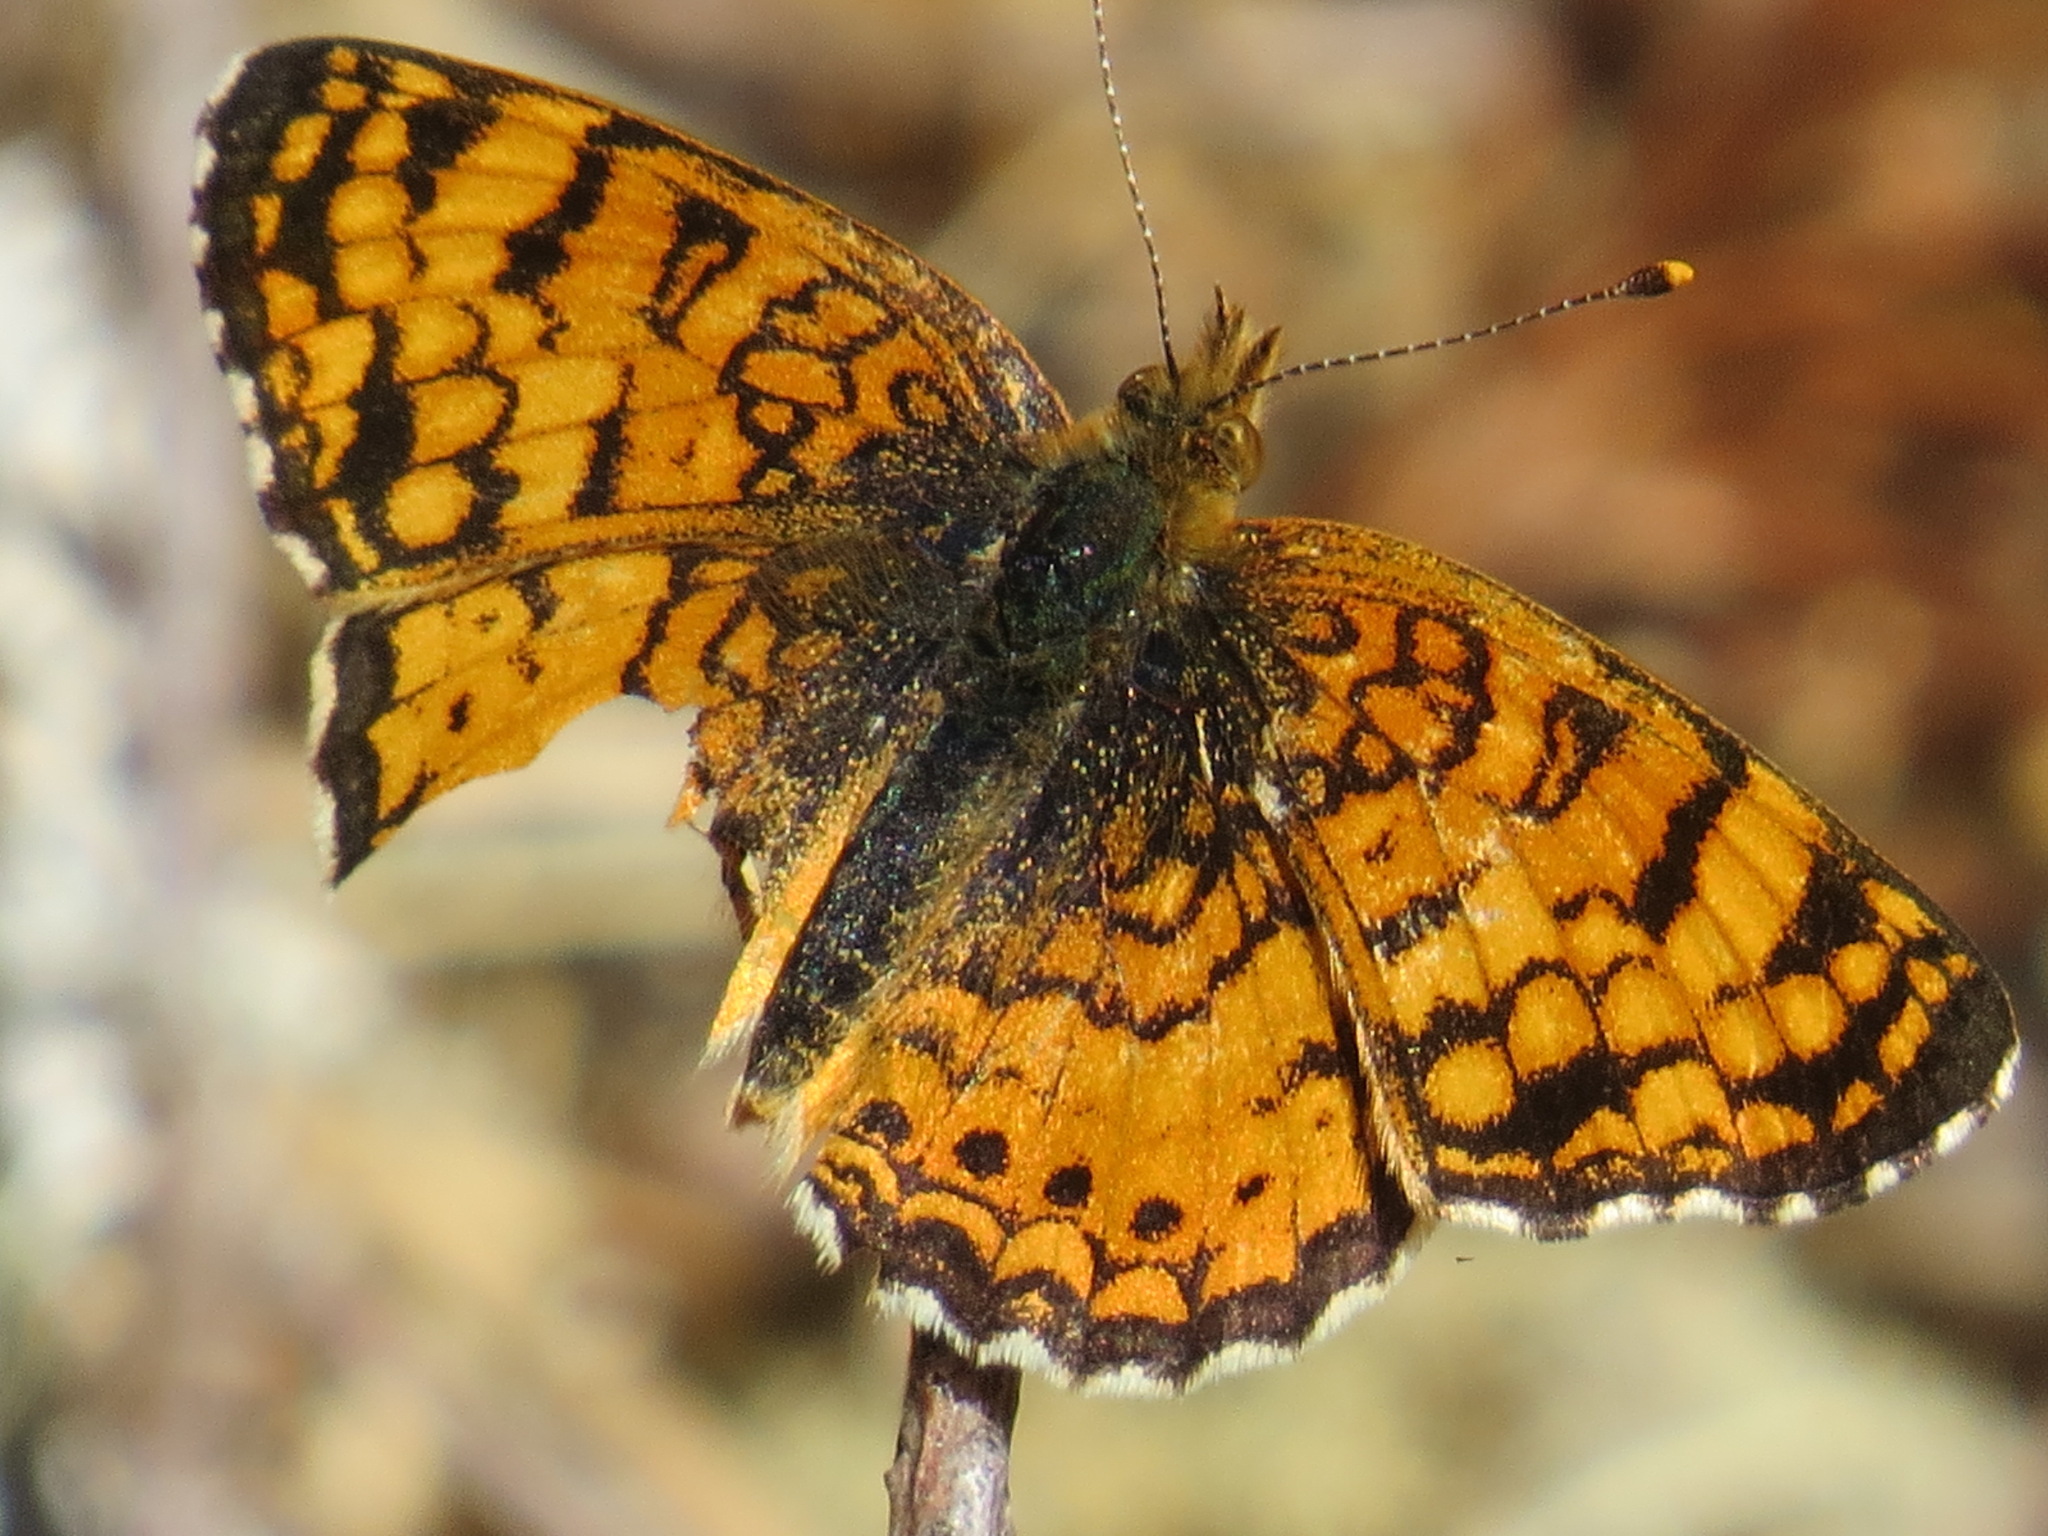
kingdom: Animalia
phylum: Arthropoda
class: Insecta
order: Lepidoptera
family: Nymphalidae
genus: Eresia
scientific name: Eresia aveyrona
